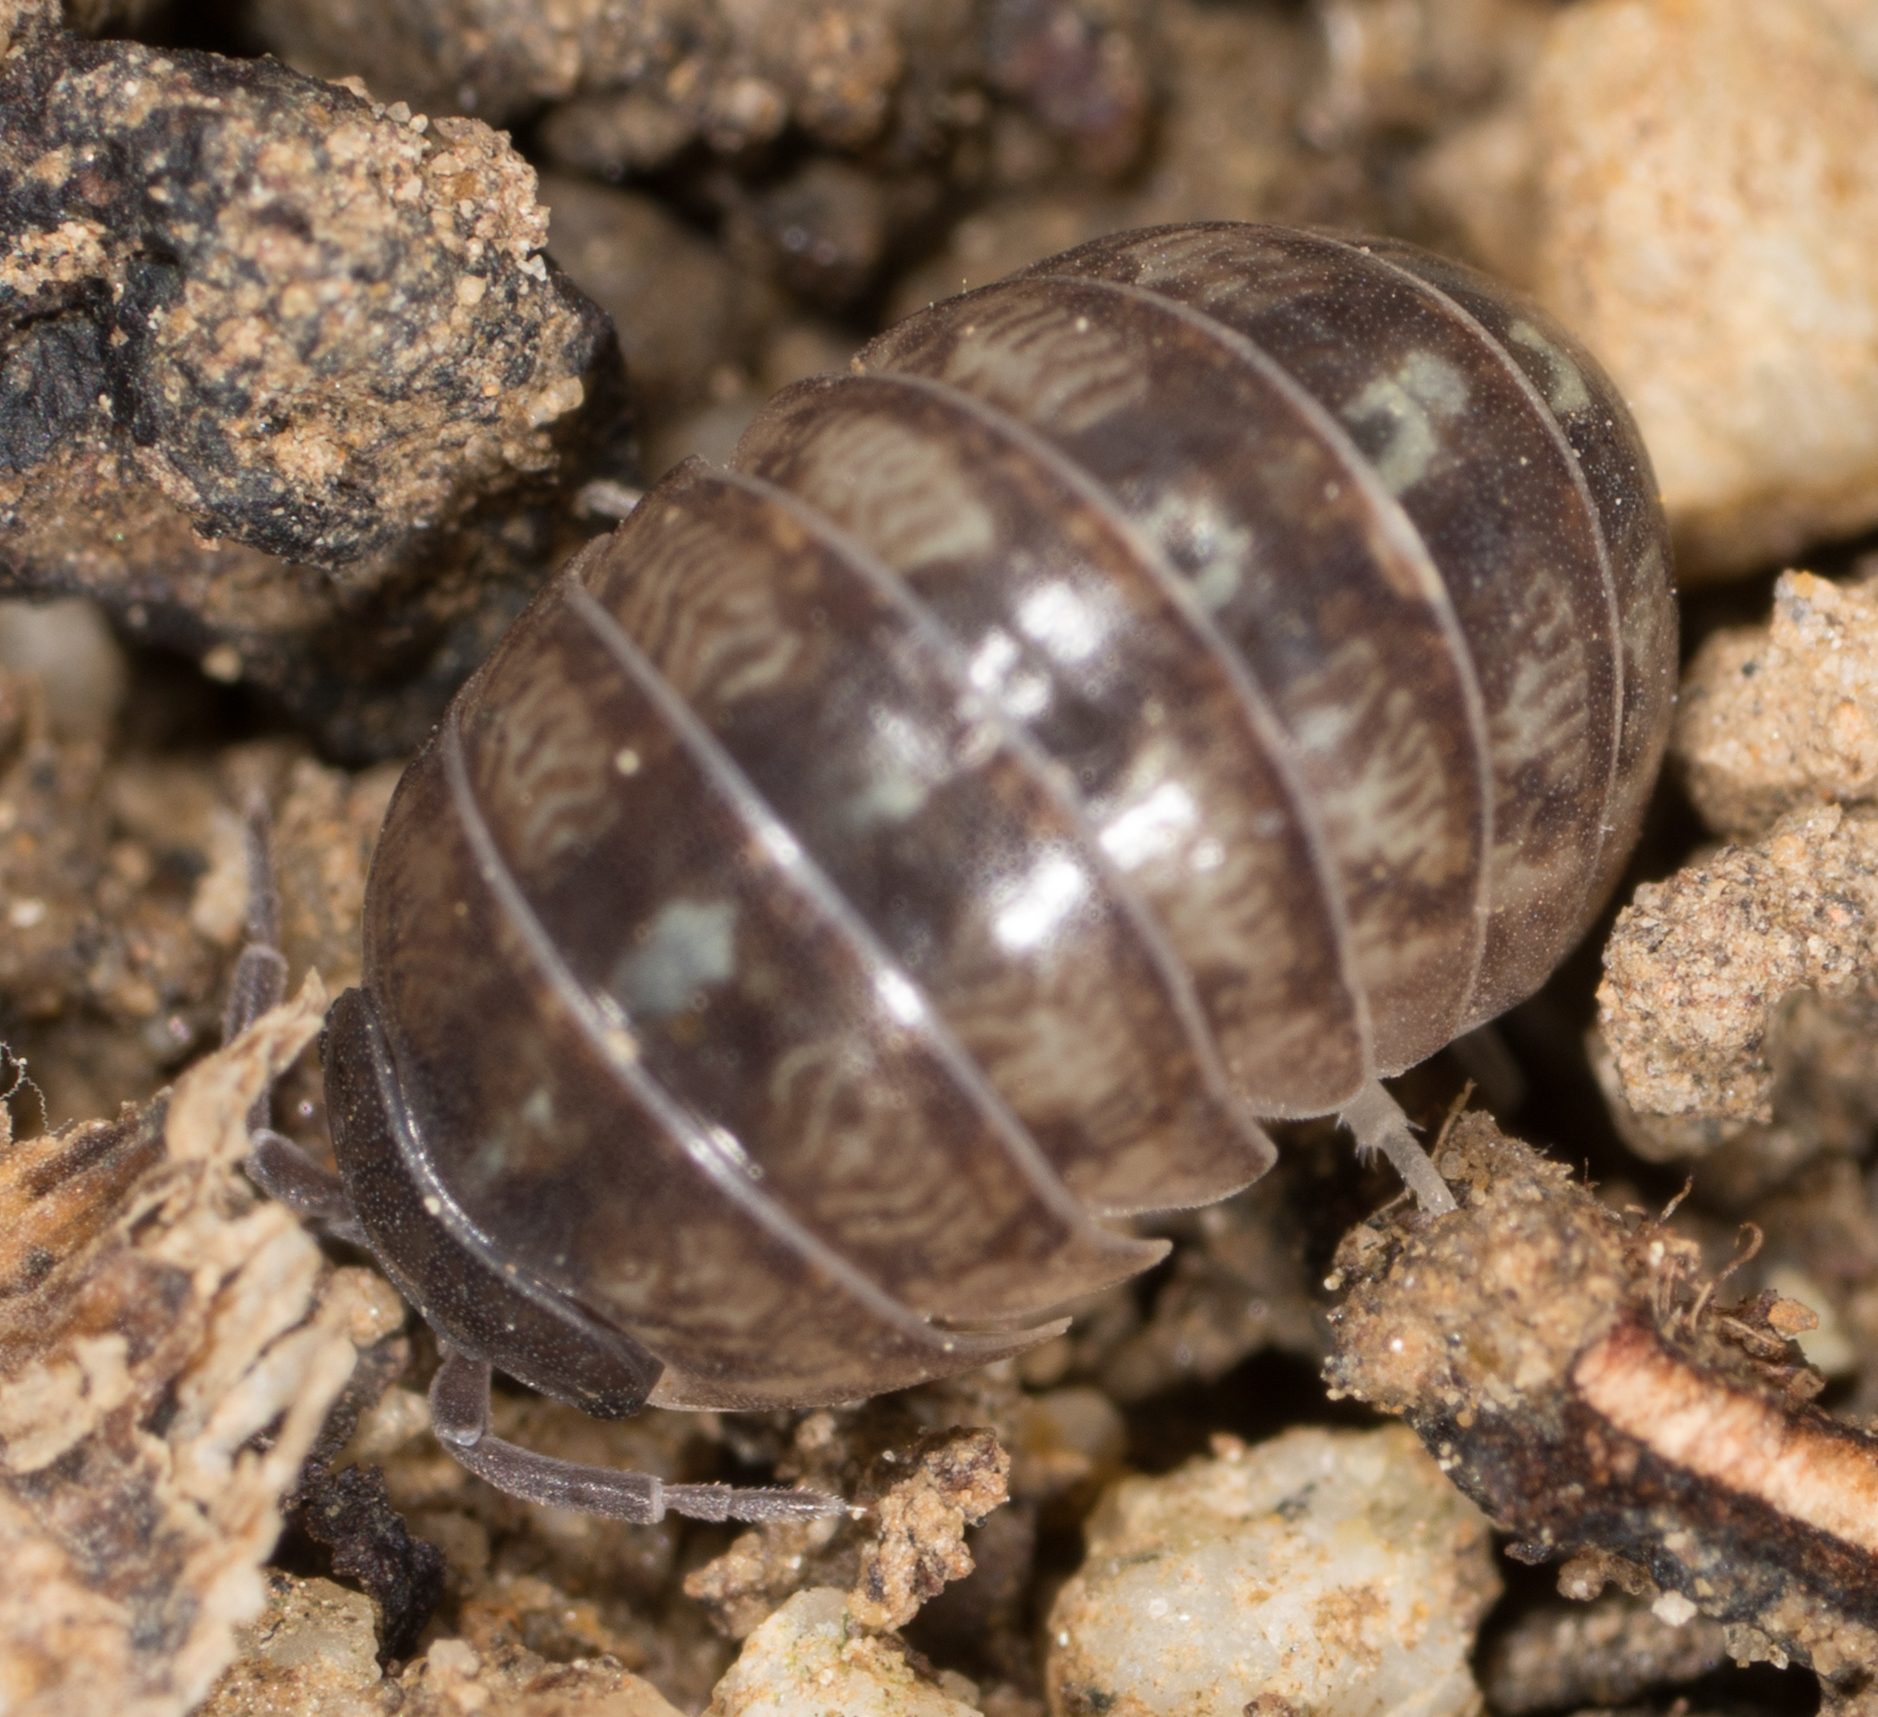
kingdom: Animalia
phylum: Arthropoda
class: Malacostraca
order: Isopoda
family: Armadillidiidae
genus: Armadillidium
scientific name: Armadillidium vulgare
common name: Common pill woodlouse
